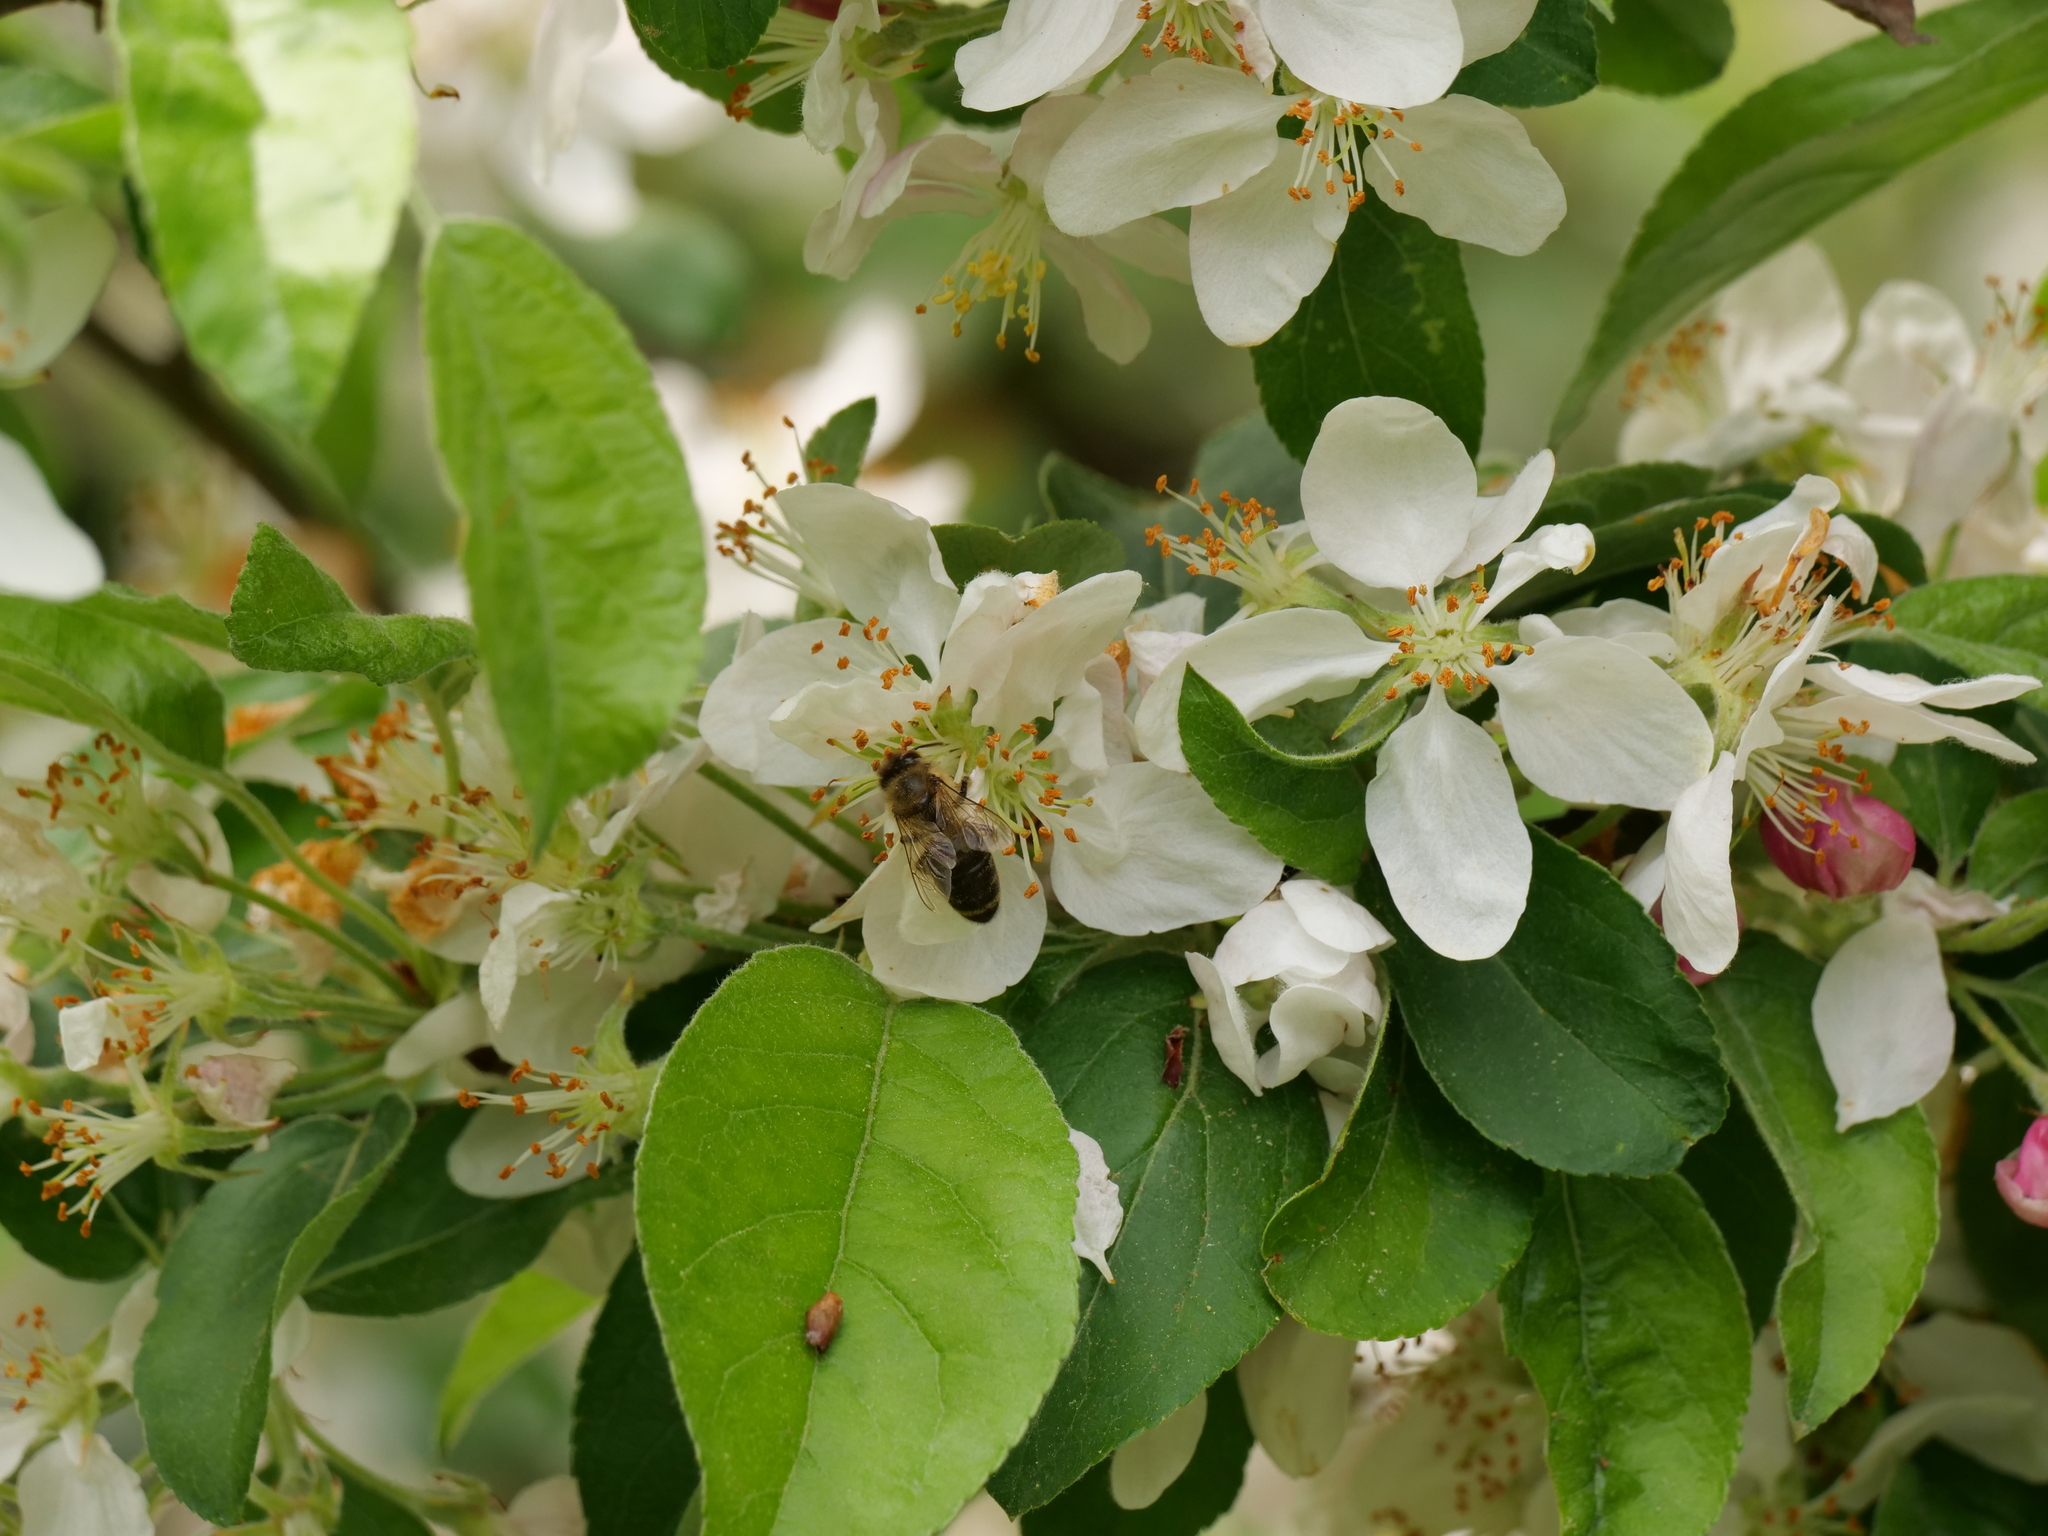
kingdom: Animalia
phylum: Arthropoda
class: Insecta
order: Hymenoptera
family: Apidae
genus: Apis
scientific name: Apis mellifera
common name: Honey bee
